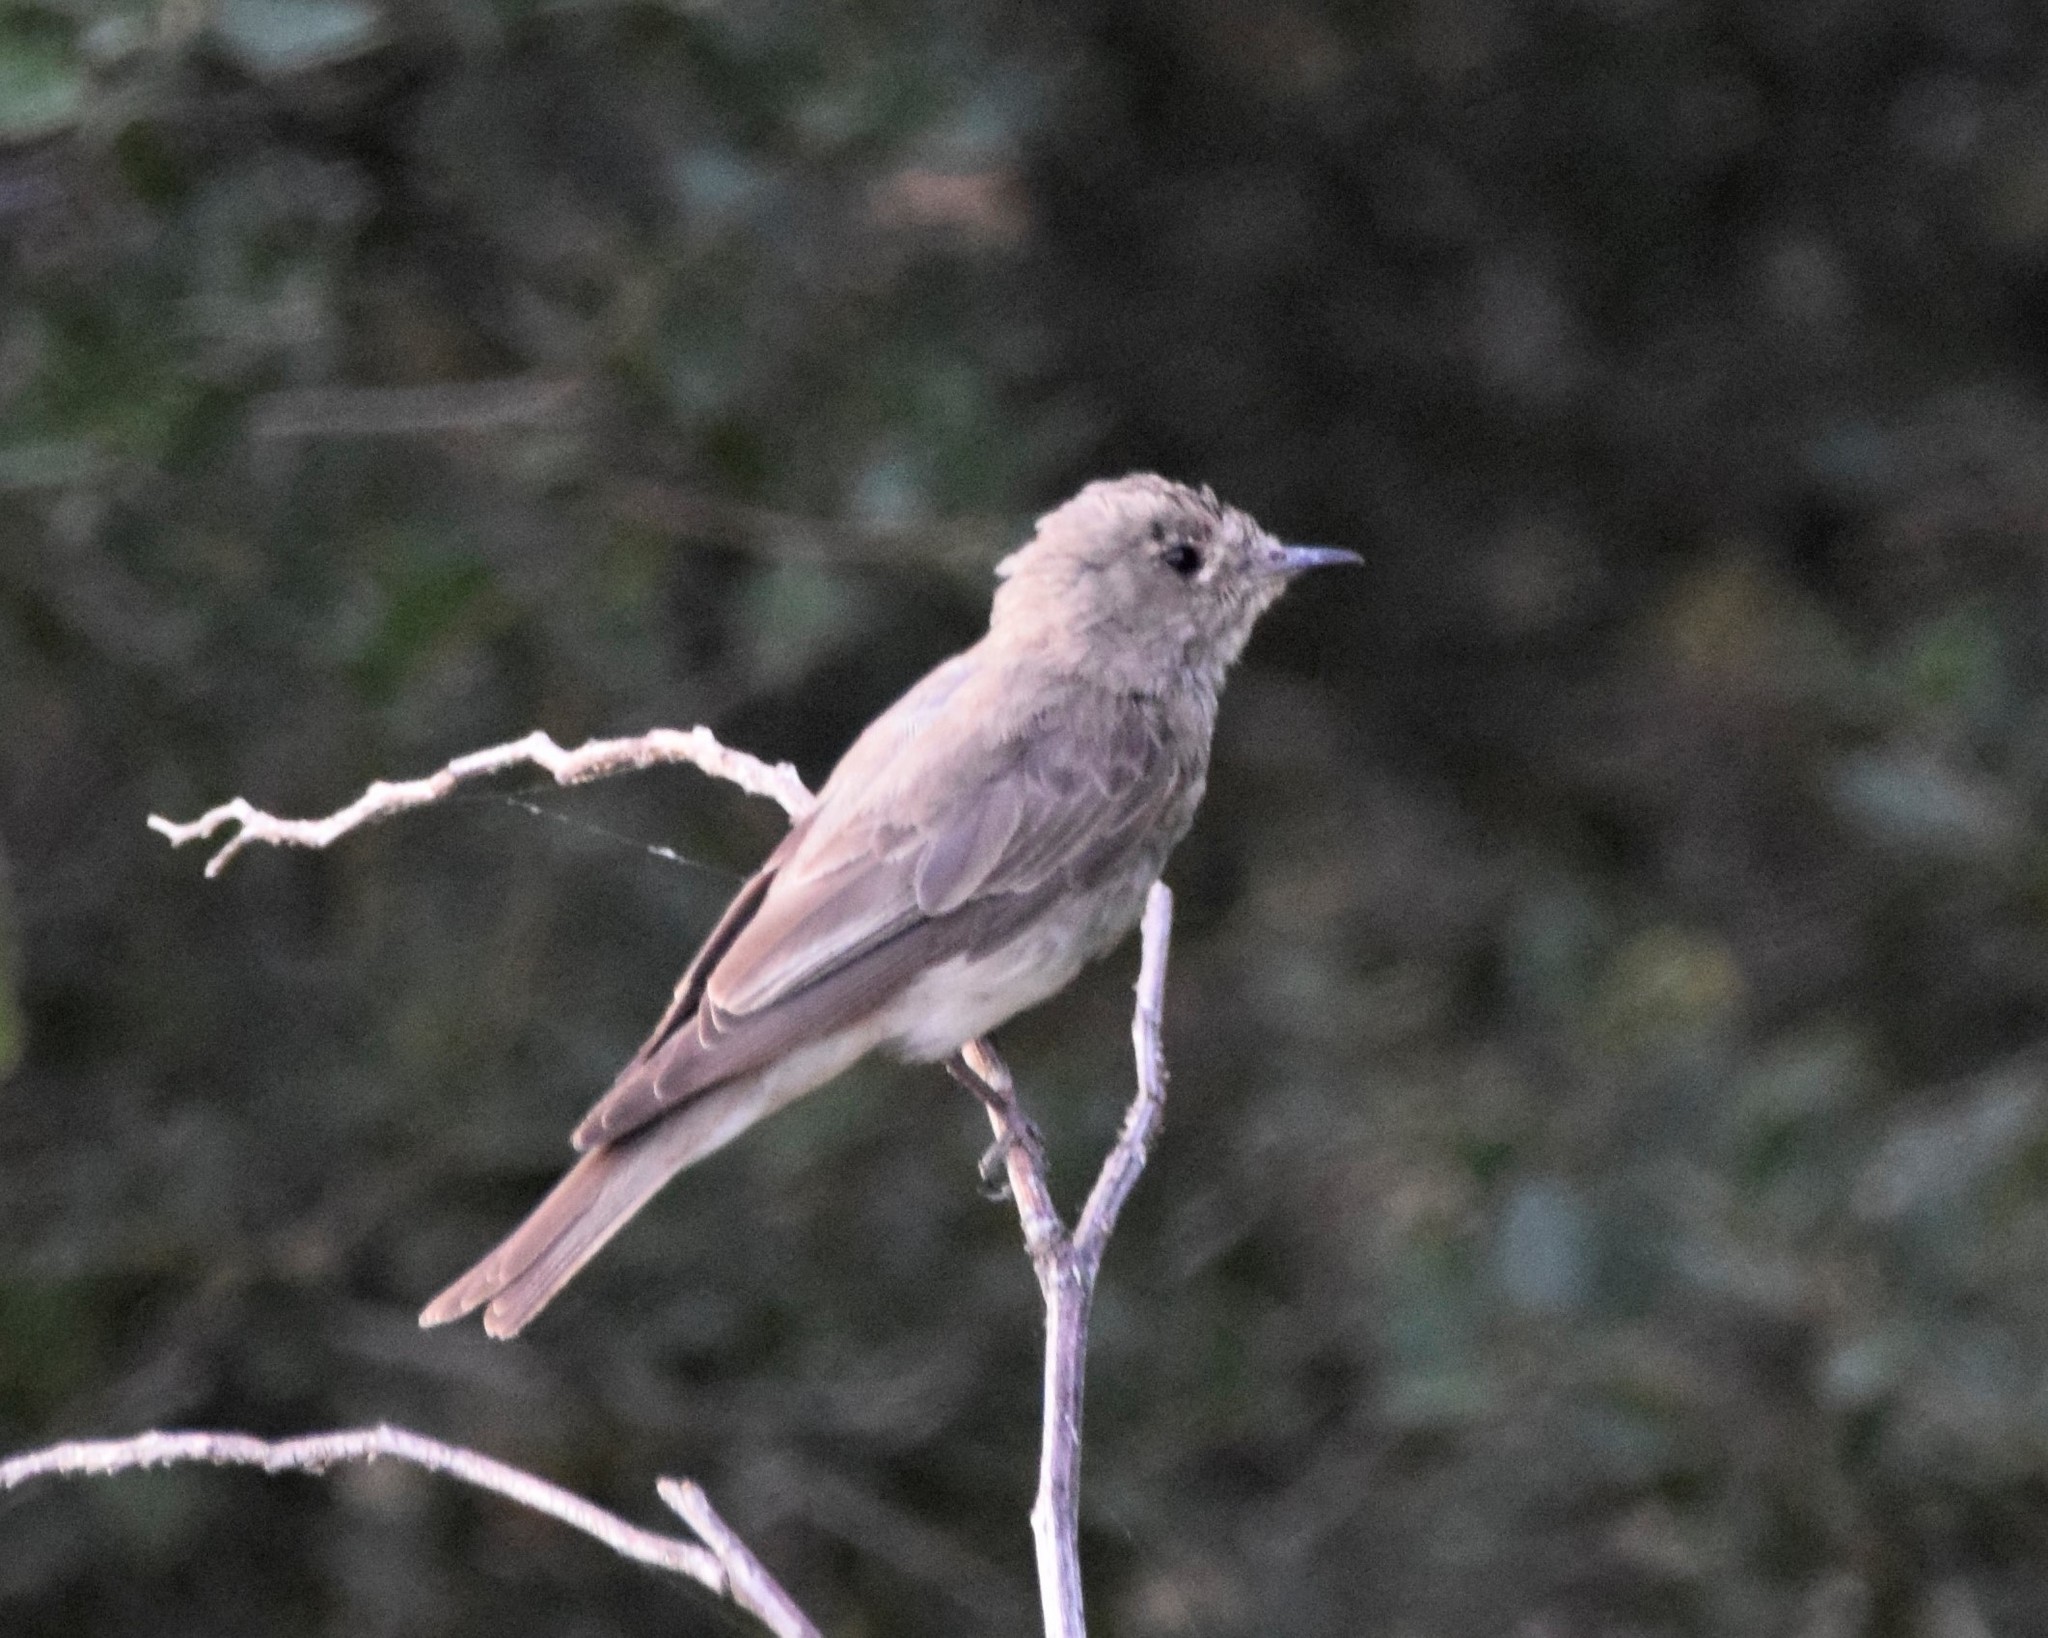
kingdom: Animalia
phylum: Chordata
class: Aves
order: Passeriformes
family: Muscicapidae
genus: Muscicapa
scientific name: Muscicapa striata
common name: Spotted flycatcher
